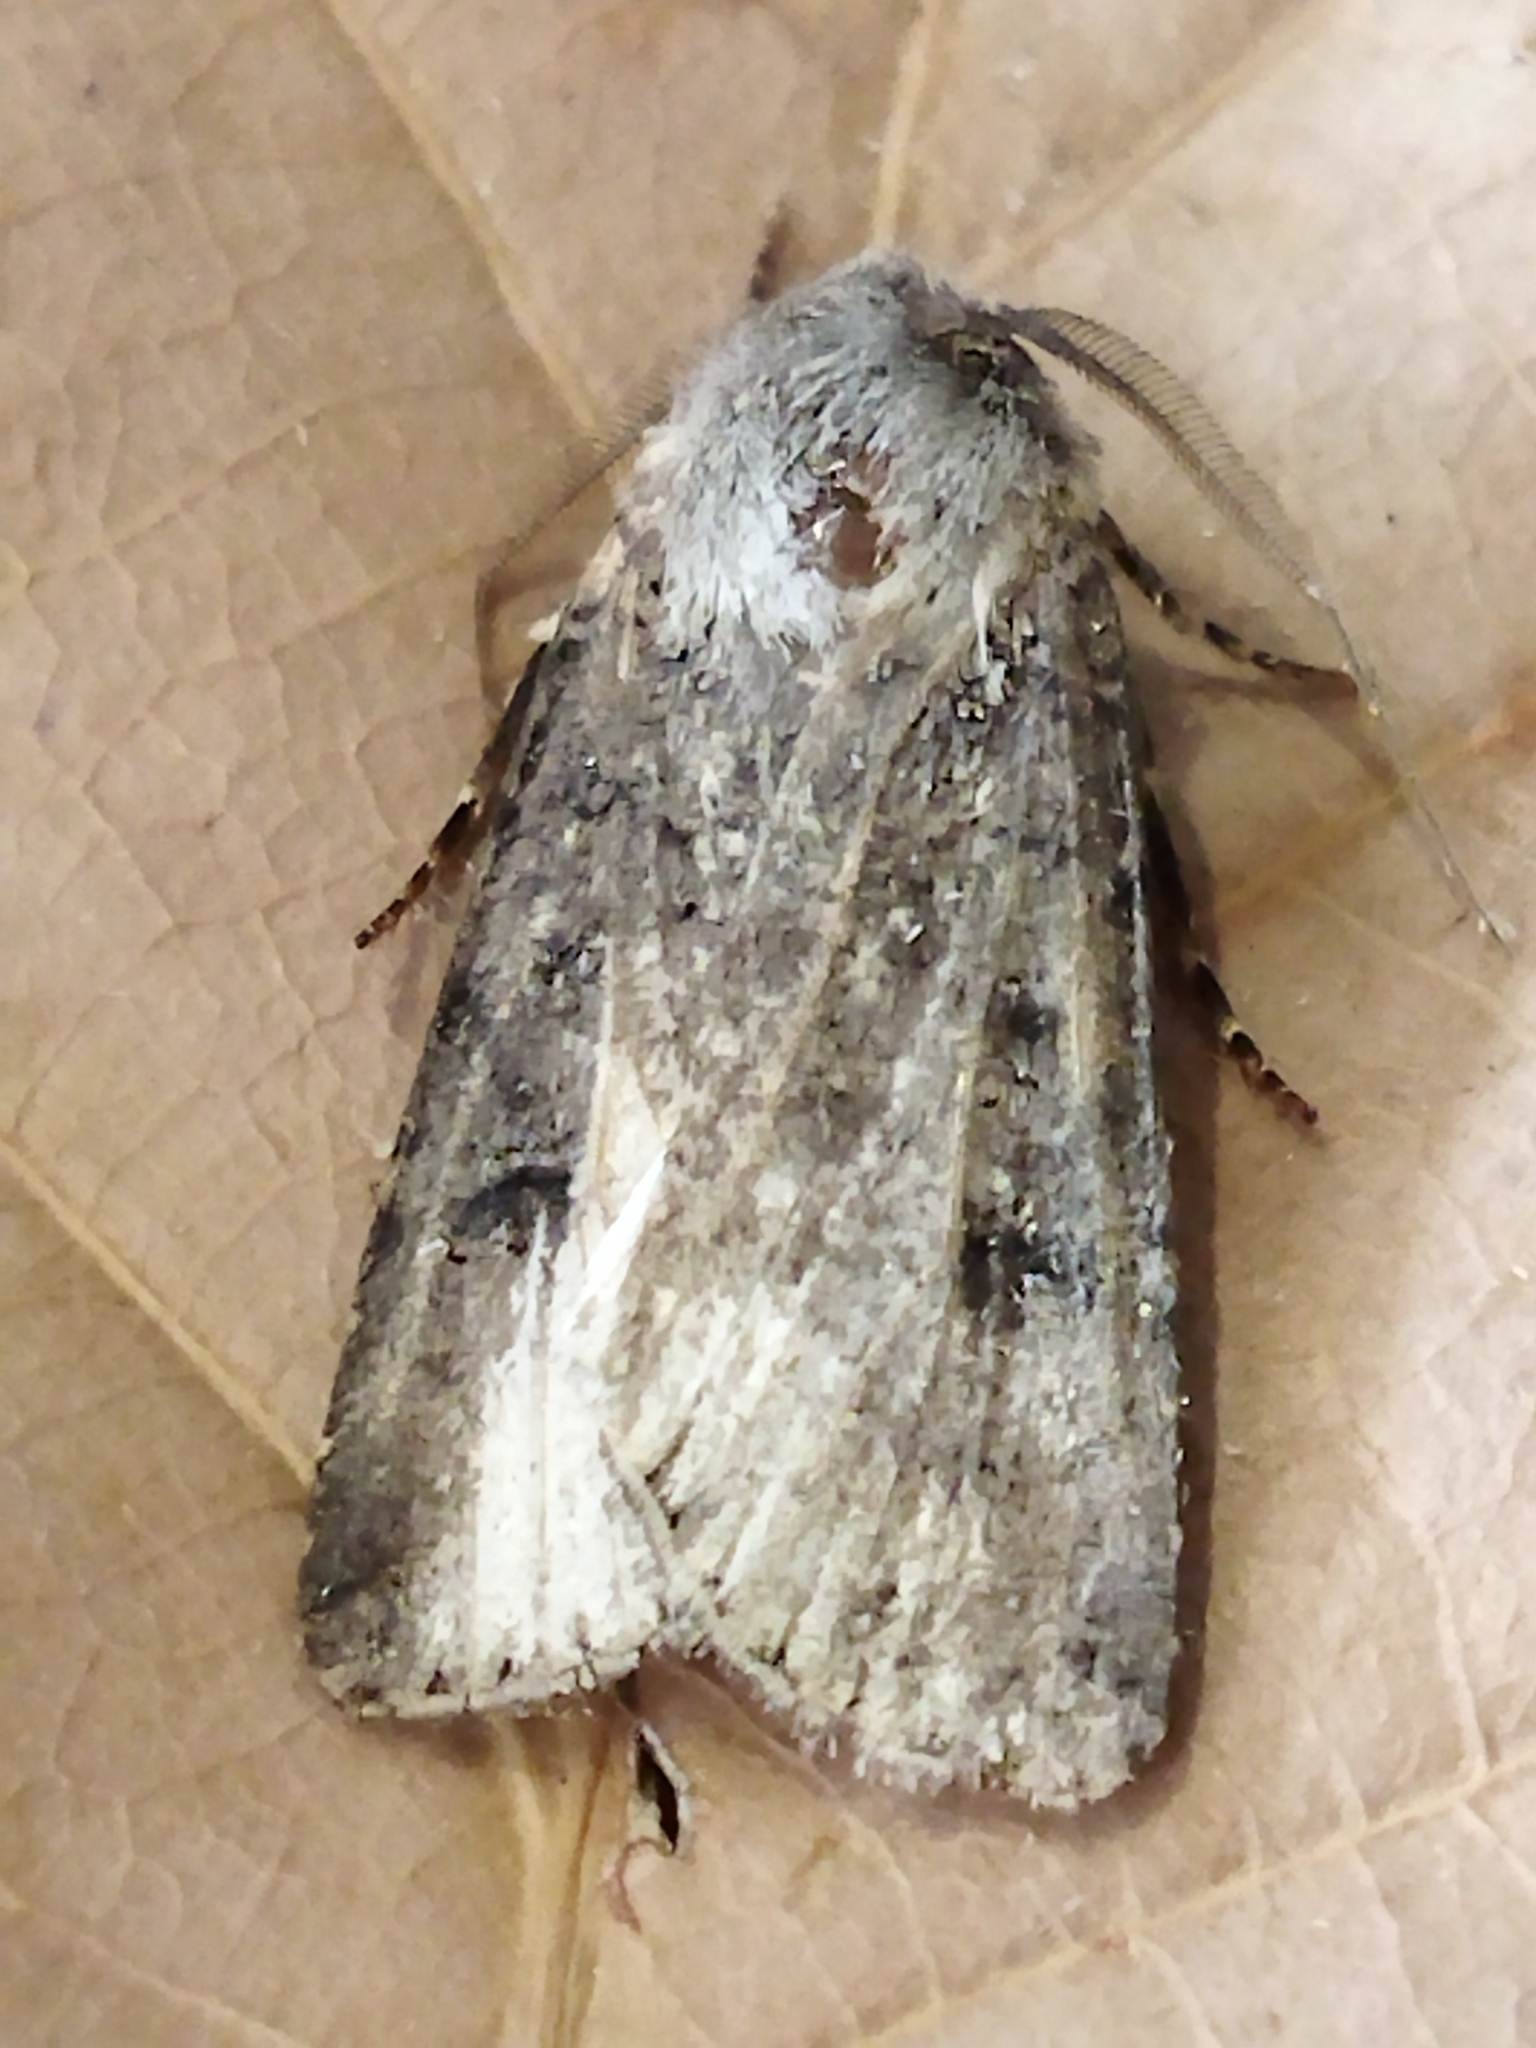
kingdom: Animalia
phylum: Arthropoda
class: Insecta
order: Lepidoptera
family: Noctuidae
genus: Agrotis
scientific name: Agrotis segetum
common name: Turnip moth
